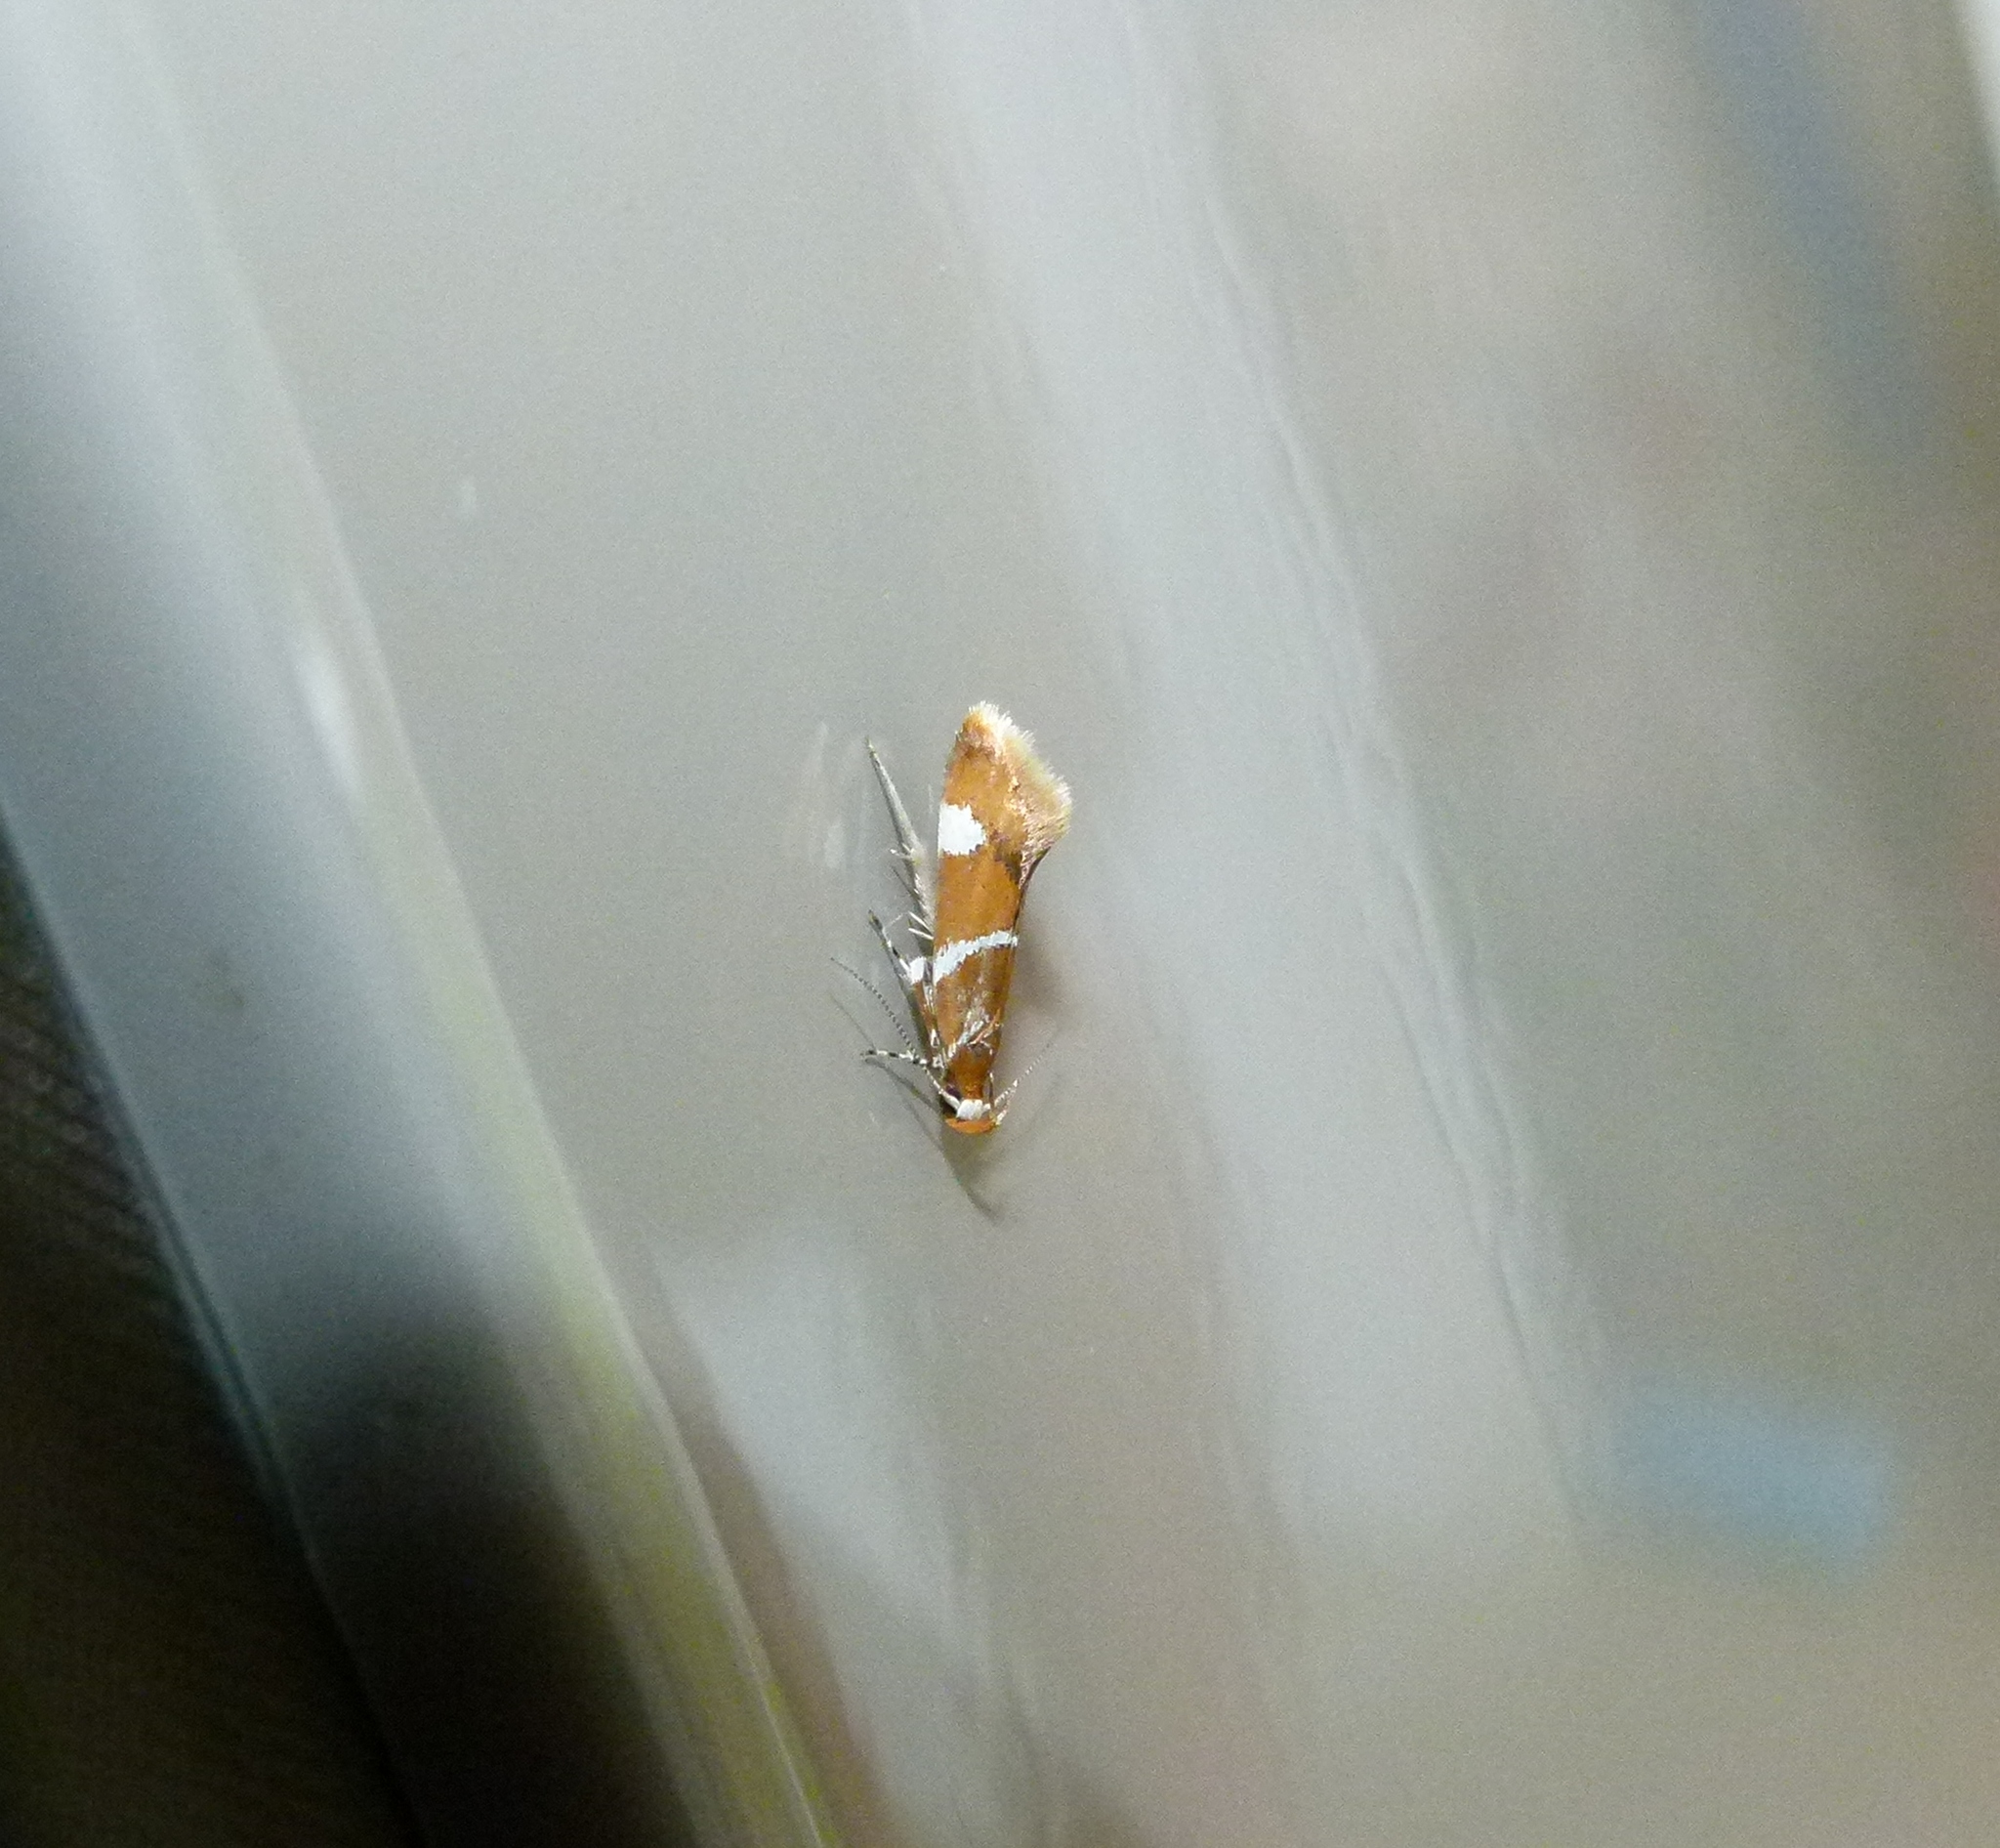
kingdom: Animalia
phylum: Arthropoda
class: Insecta
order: Lepidoptera
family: Oecophoridae
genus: Promalactis
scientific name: Promalactis suzukiella
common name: Moth
